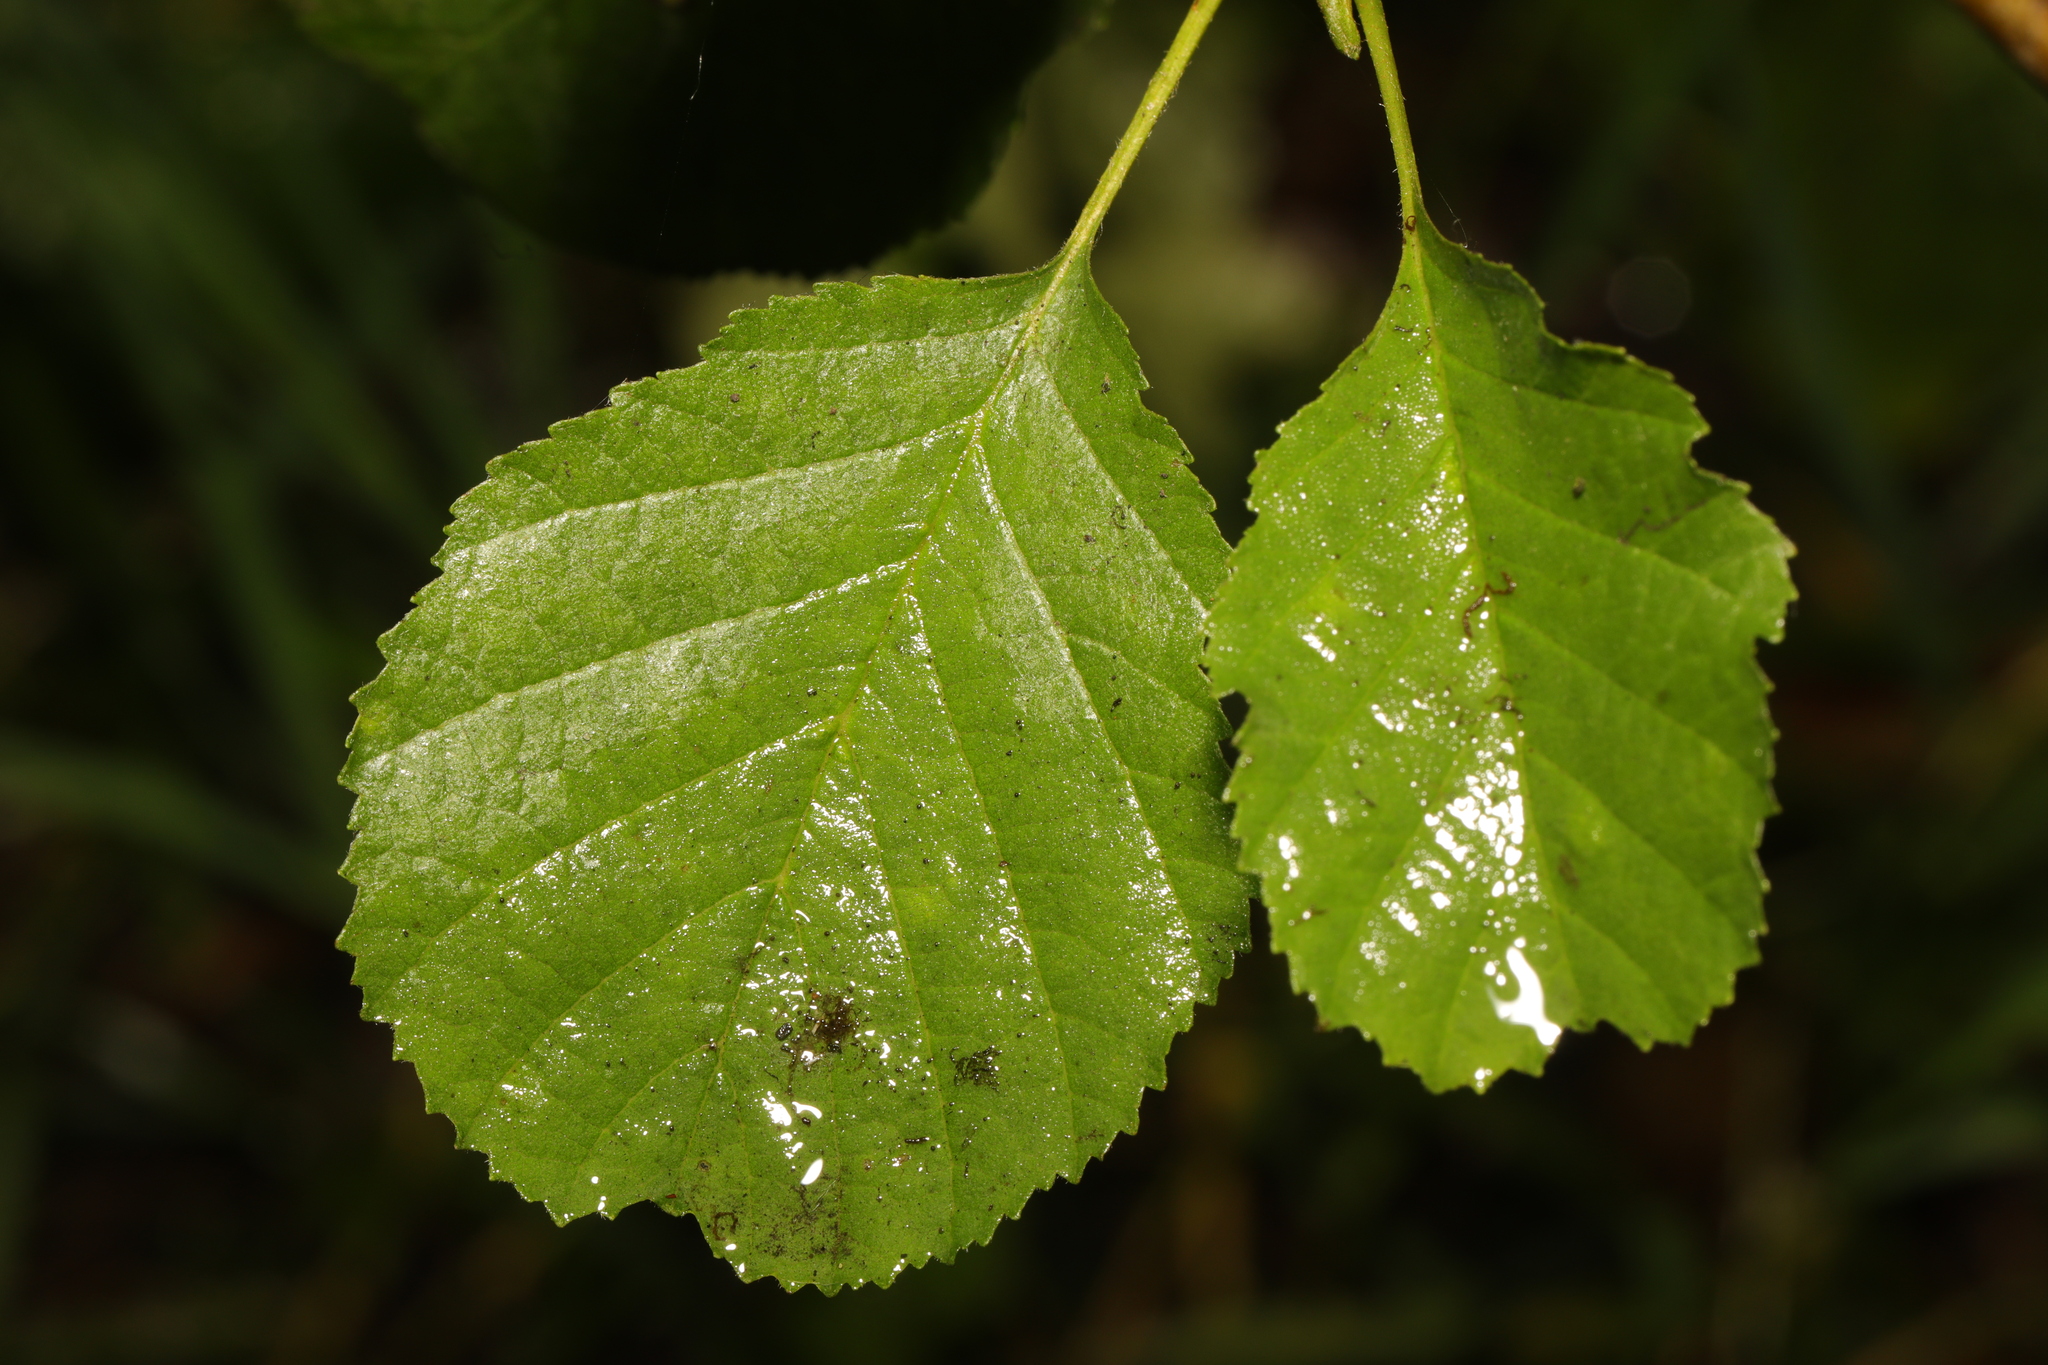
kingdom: Plantae
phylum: Tracheophyta
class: Magnoliopsida
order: Fagales
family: Betulaceae
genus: Alnus
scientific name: Alnus glutinosa
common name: Black alder
